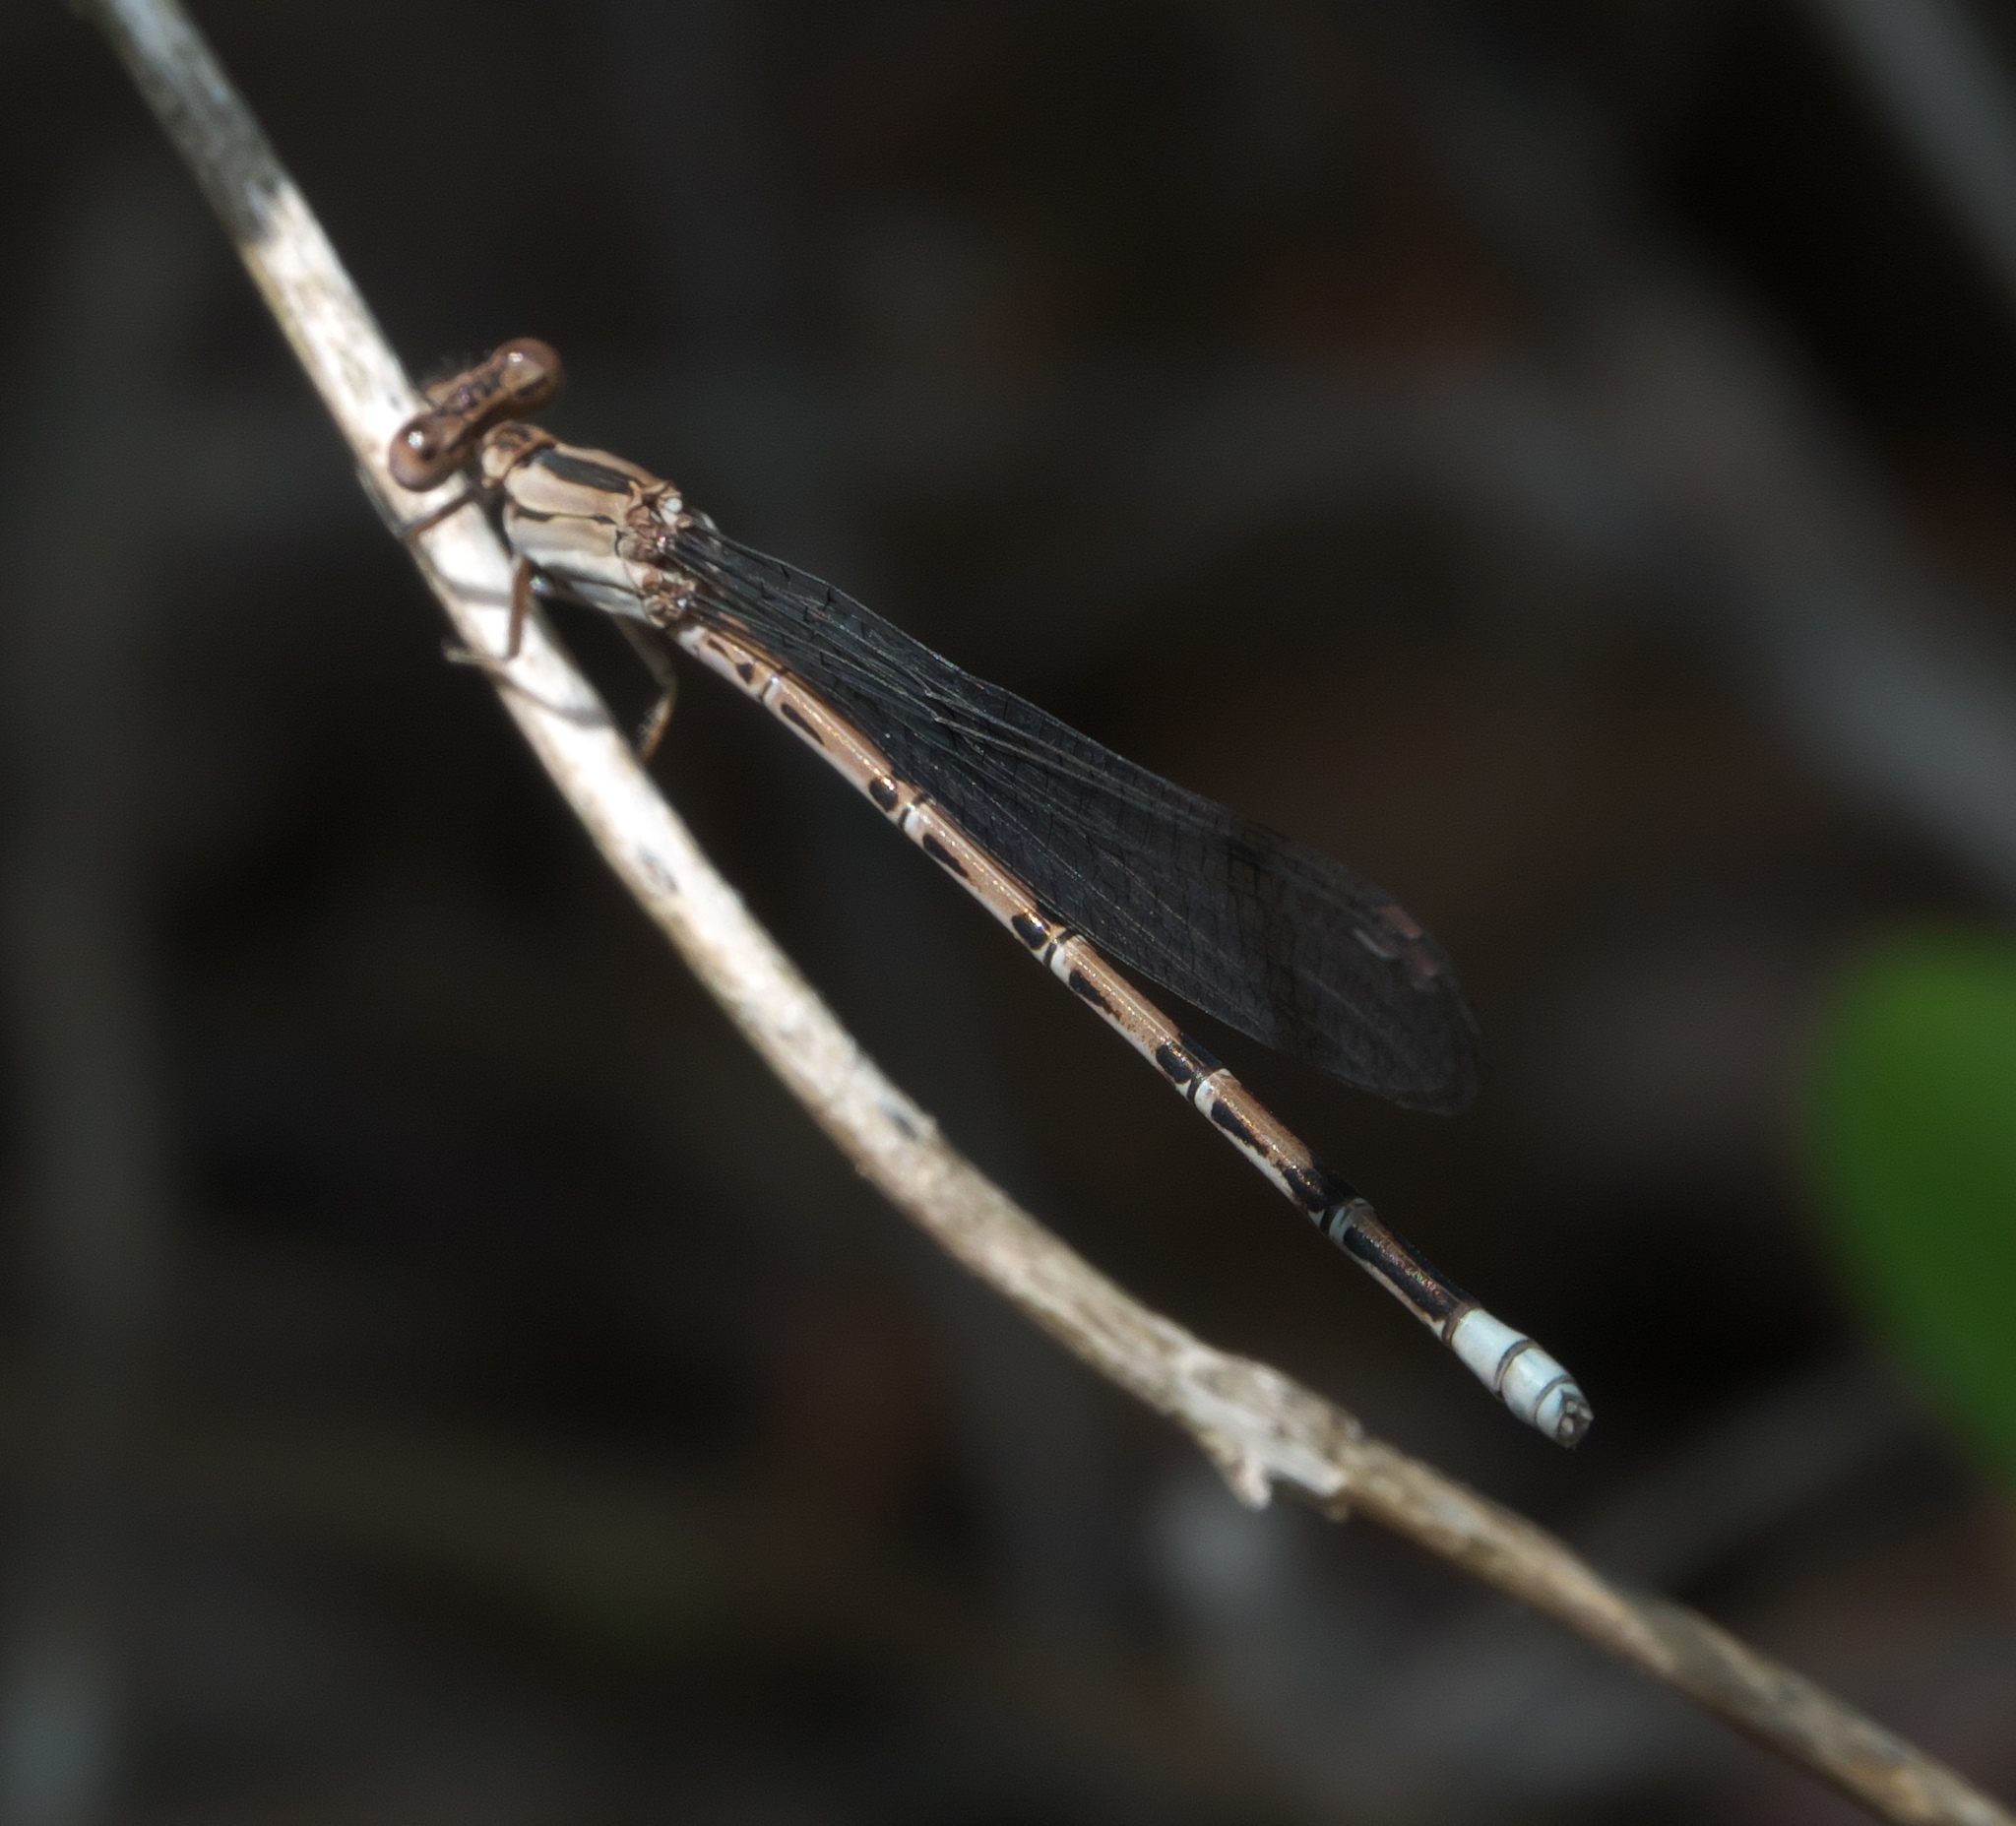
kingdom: Animalia
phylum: Arthropoda
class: Insecta
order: Odonata
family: Coenagrionidae
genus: Argia
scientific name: Argia funebris
